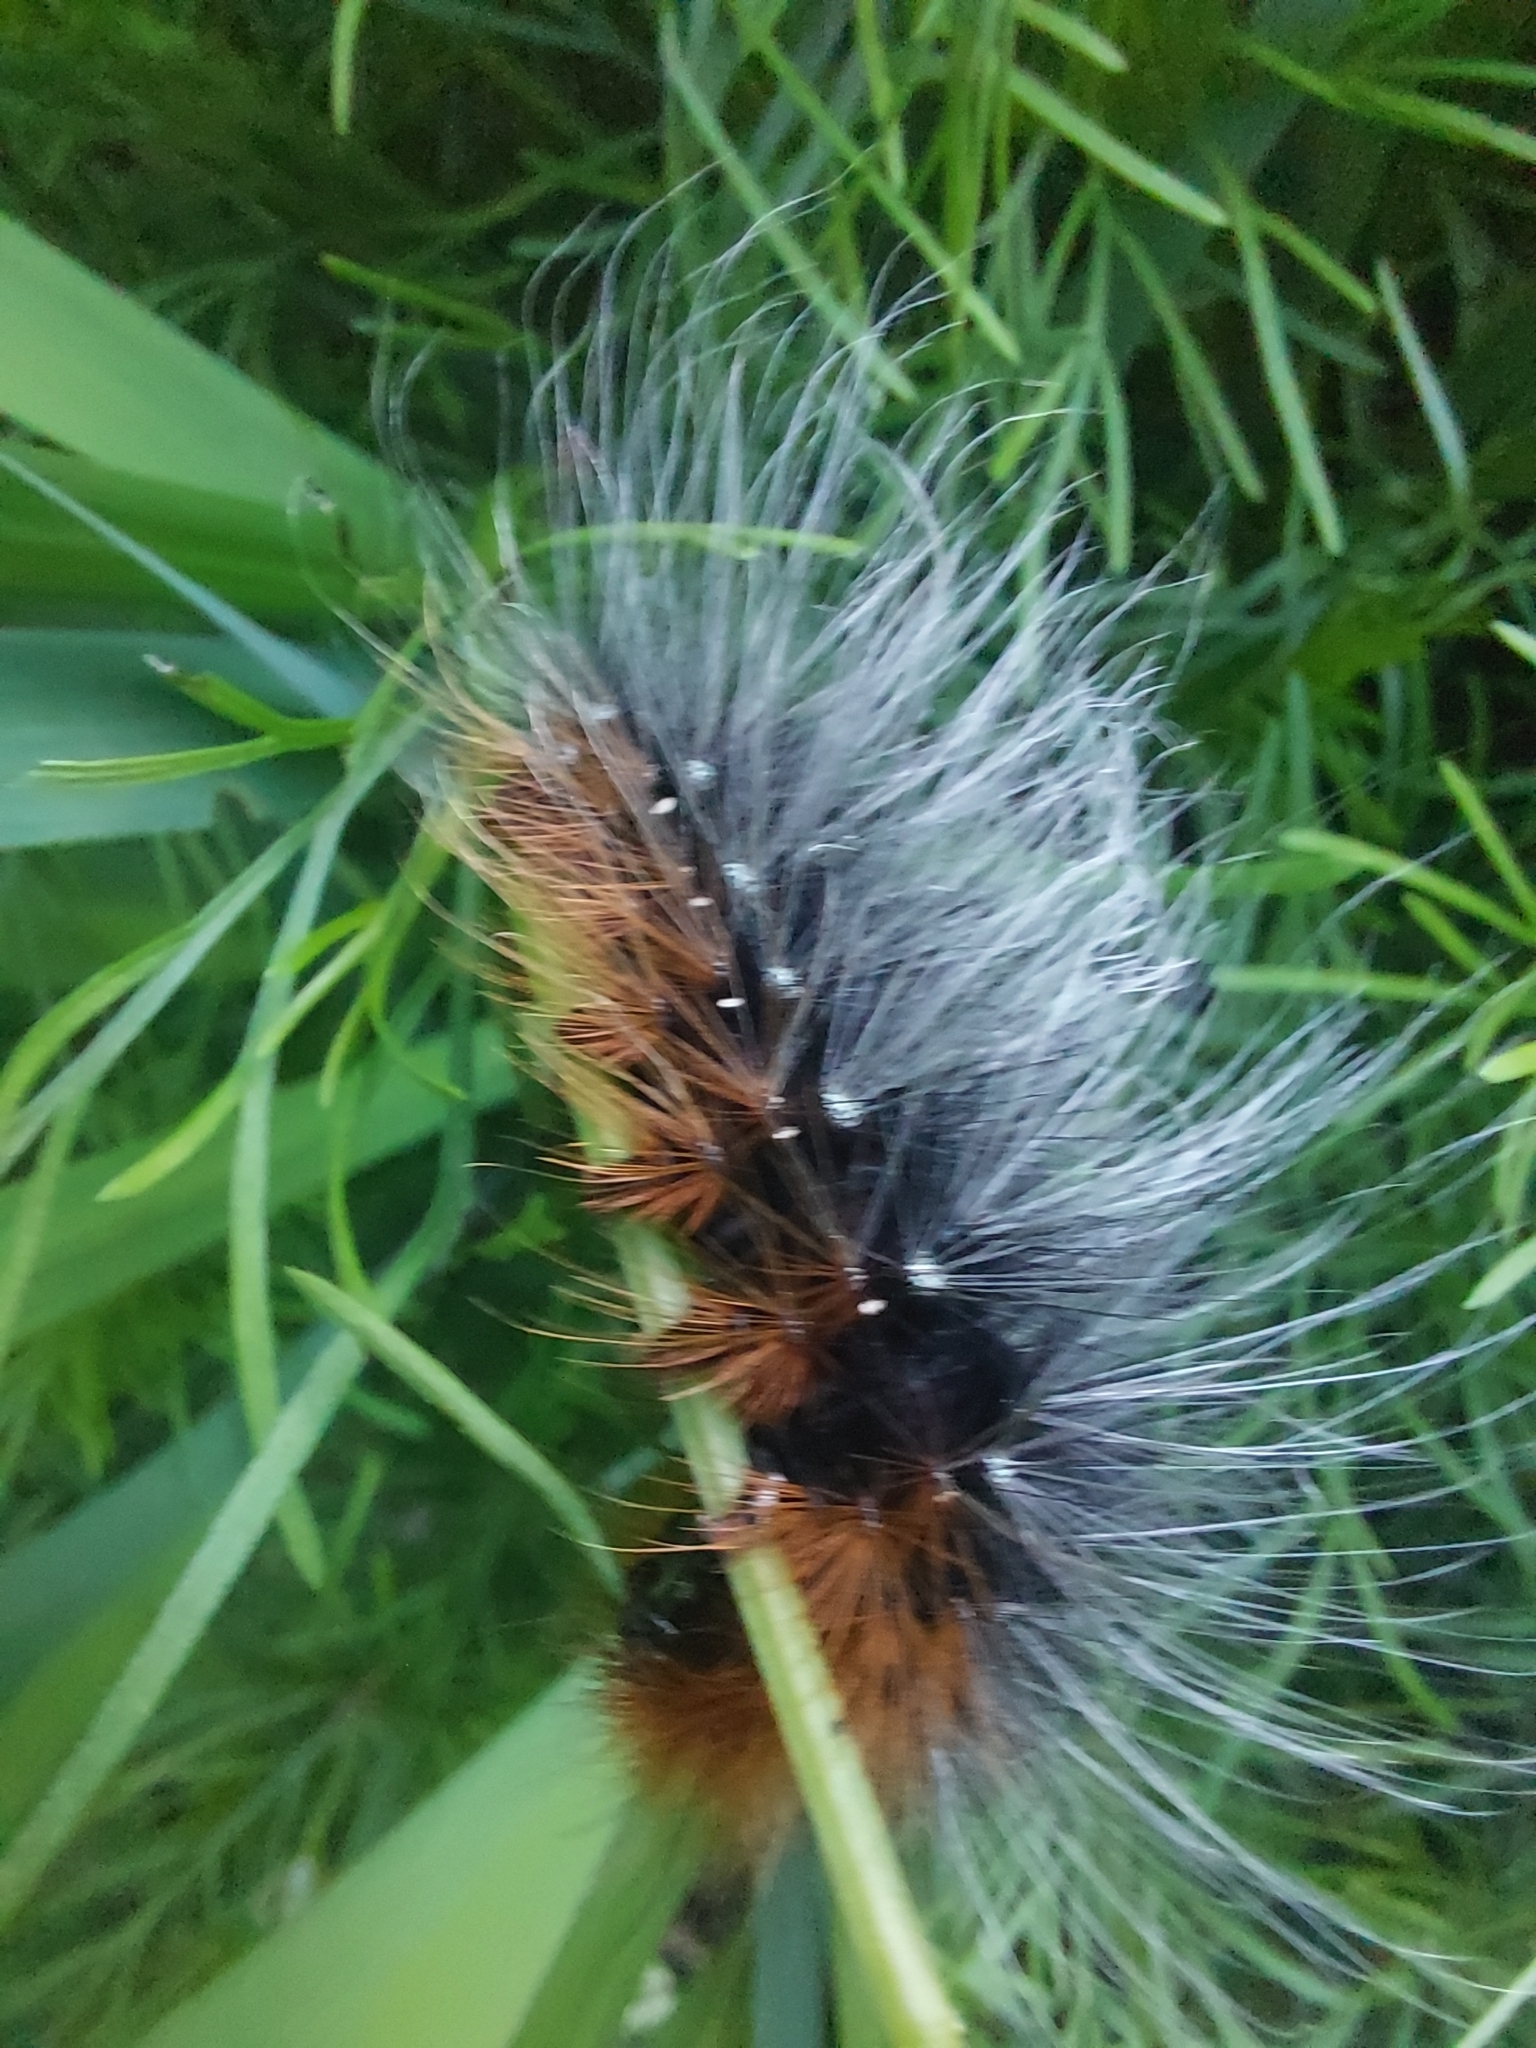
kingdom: Animalia
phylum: Arthropoda
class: Insecta
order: Lepidoptera
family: Erebidae
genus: Arctia
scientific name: Arctia caja
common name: Garden tiger
